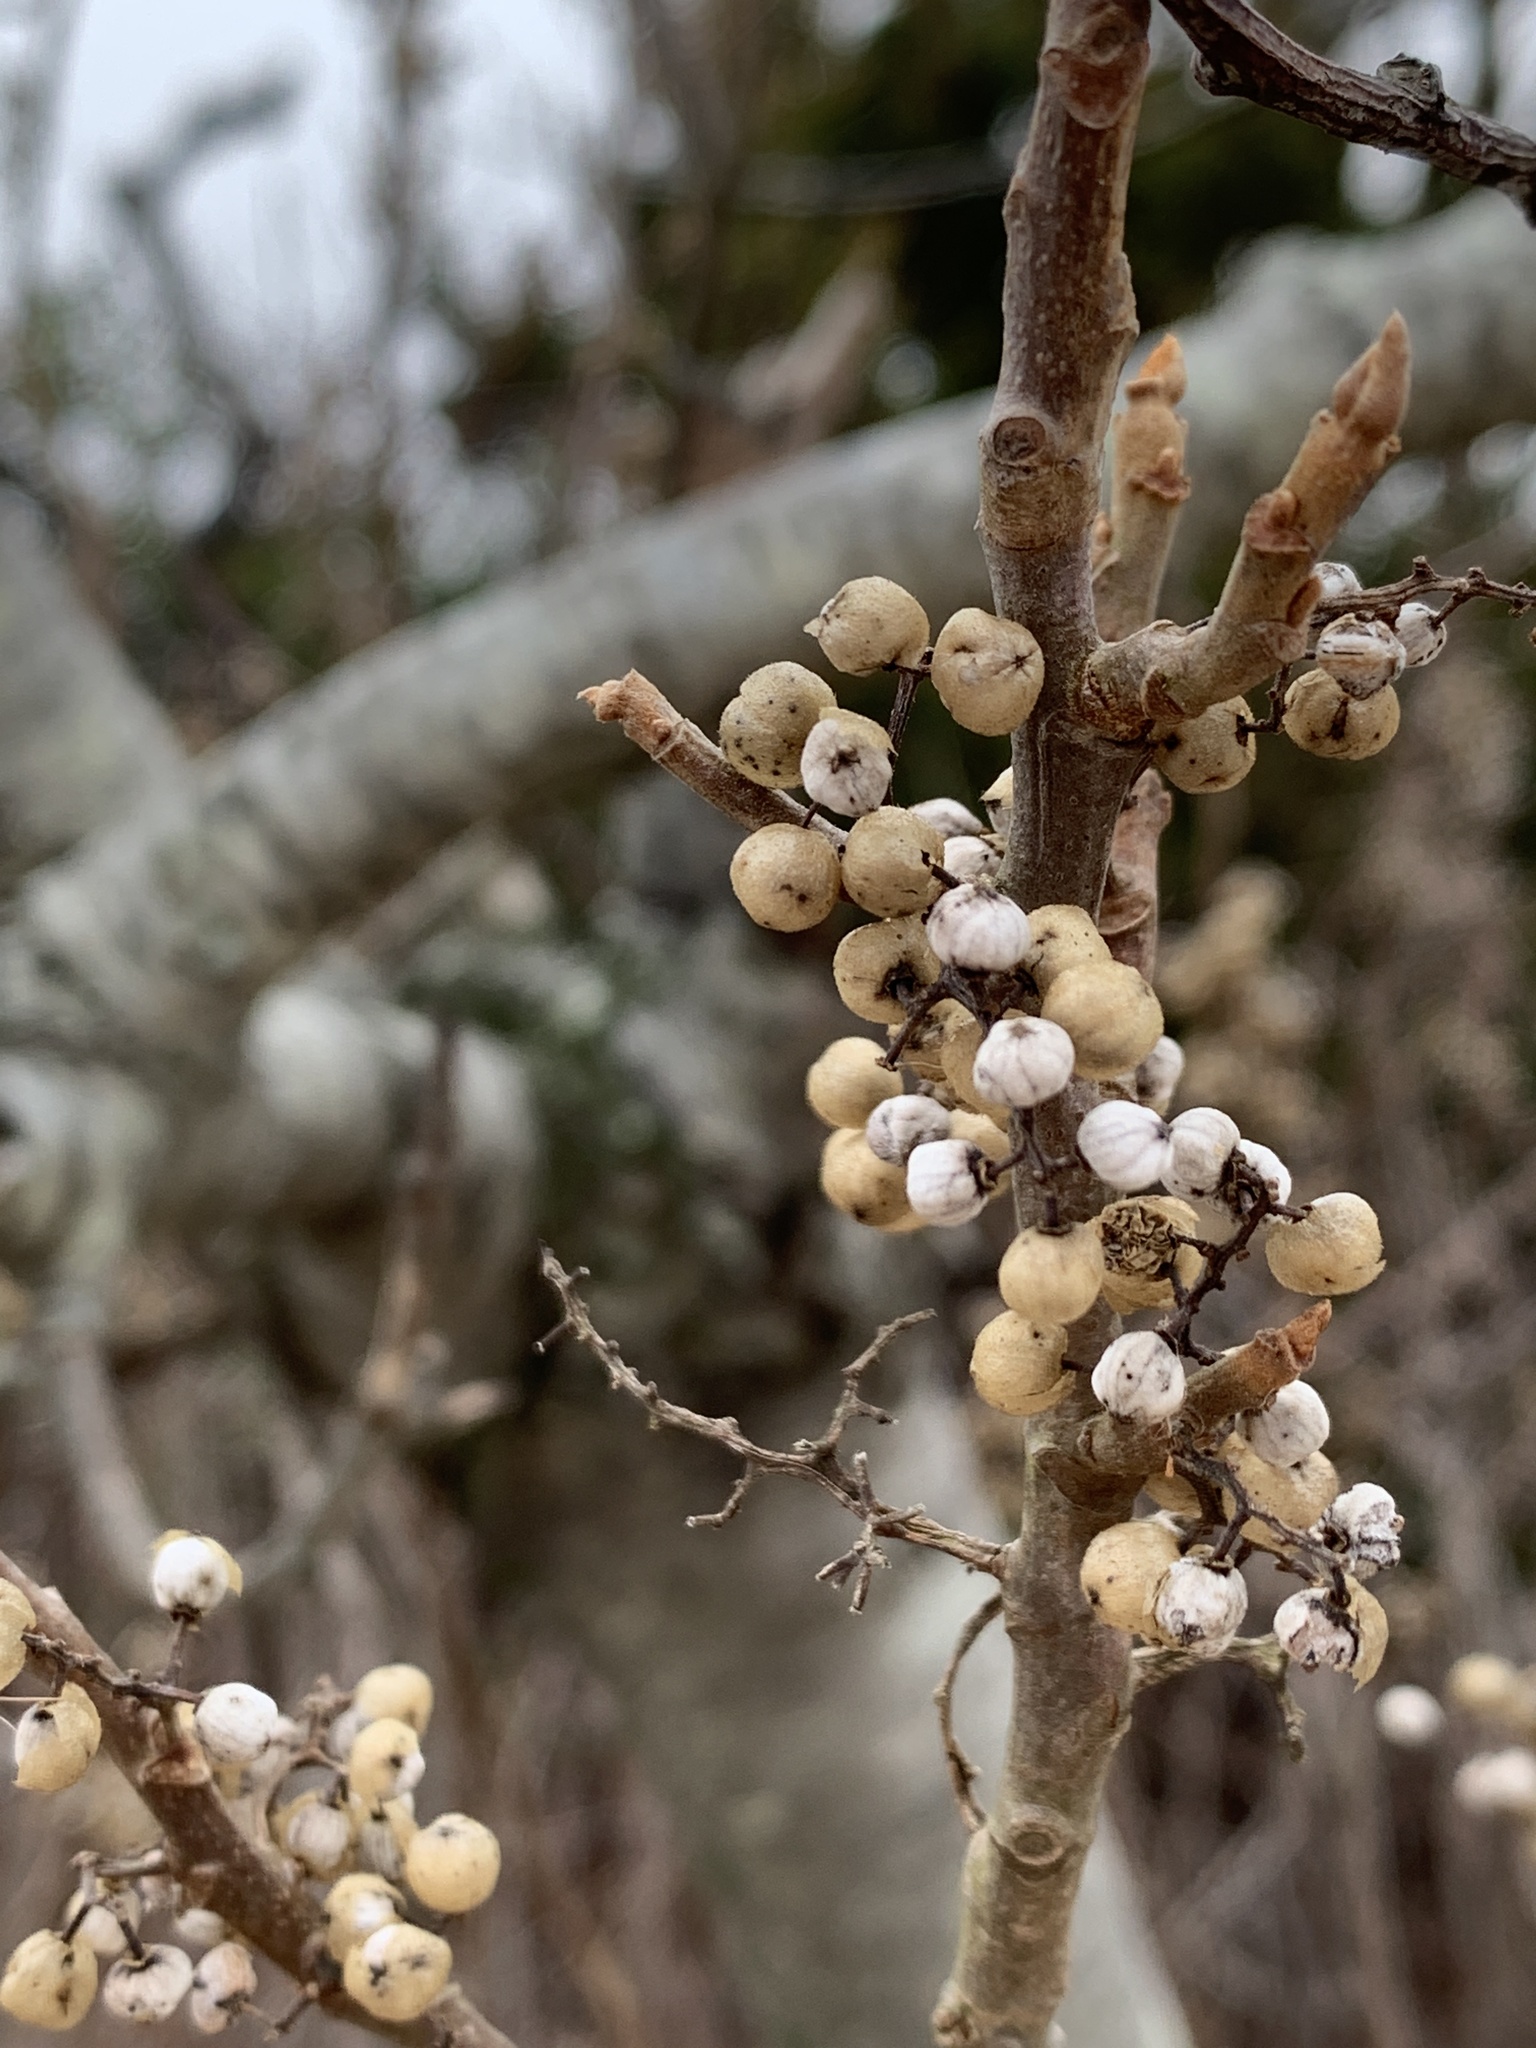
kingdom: Plantae
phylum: Tracheophyta
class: Magnoliopsida
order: Sapindales
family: Anacardiaceae
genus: Toxicodendron
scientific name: Toxicodendron radicans
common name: Poison ivy
